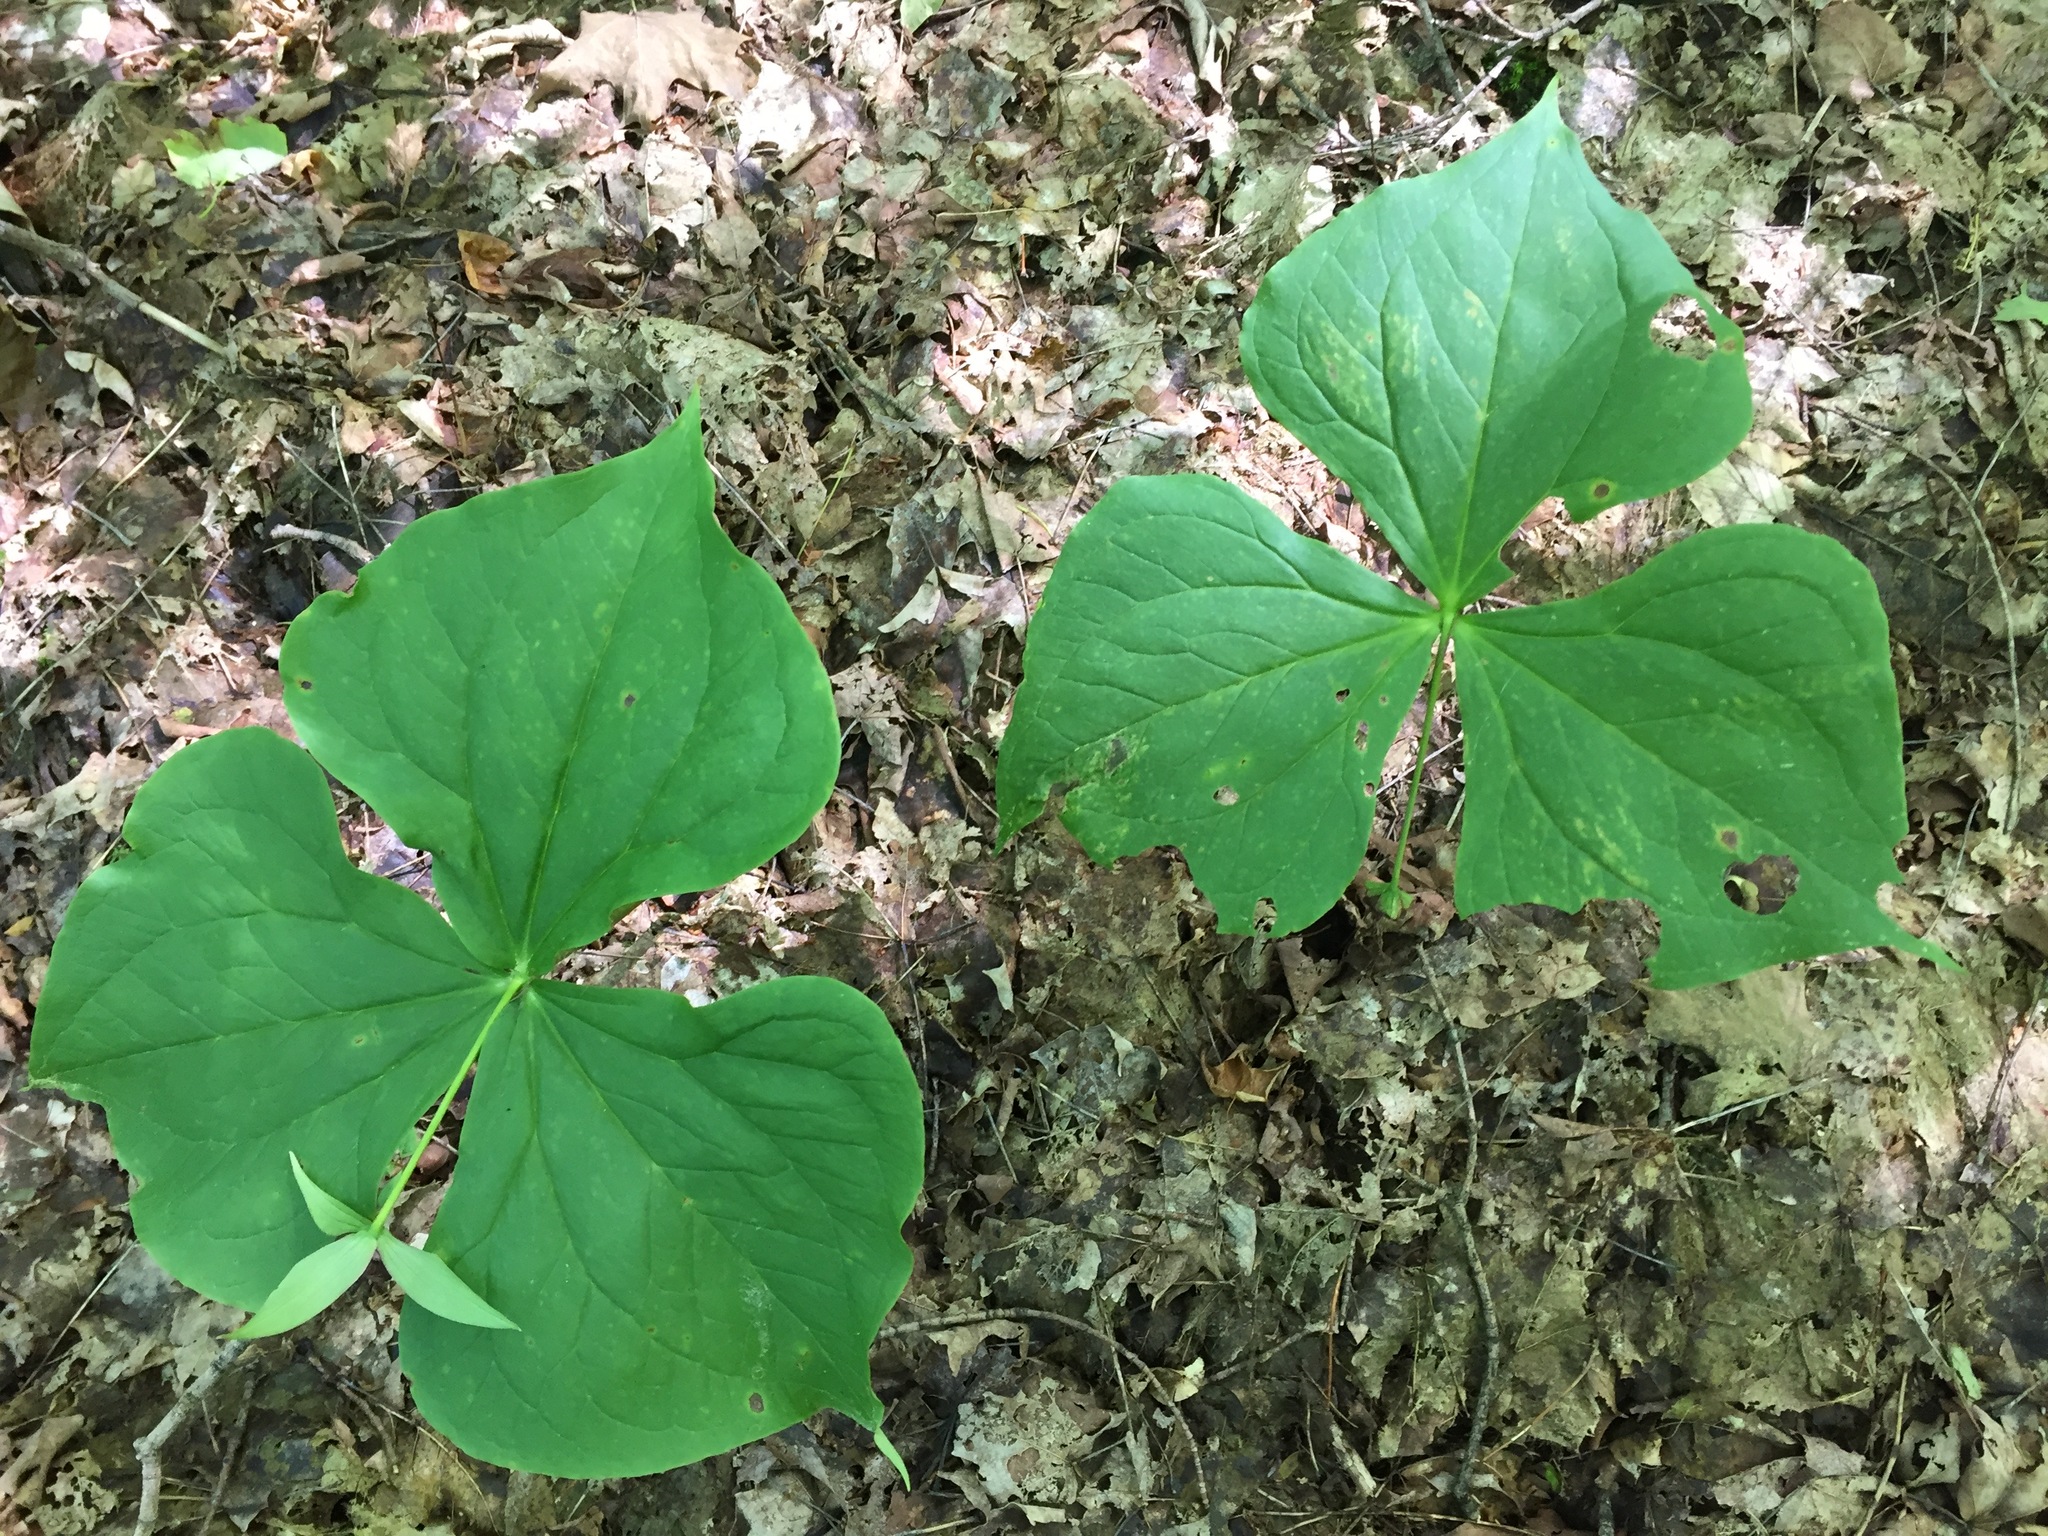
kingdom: Plantae
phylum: Tracheophyta
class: Liliopsida
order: Liliales
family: Melanthiaceae
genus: Trillium
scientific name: Trillium erectum
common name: Purple trillium
